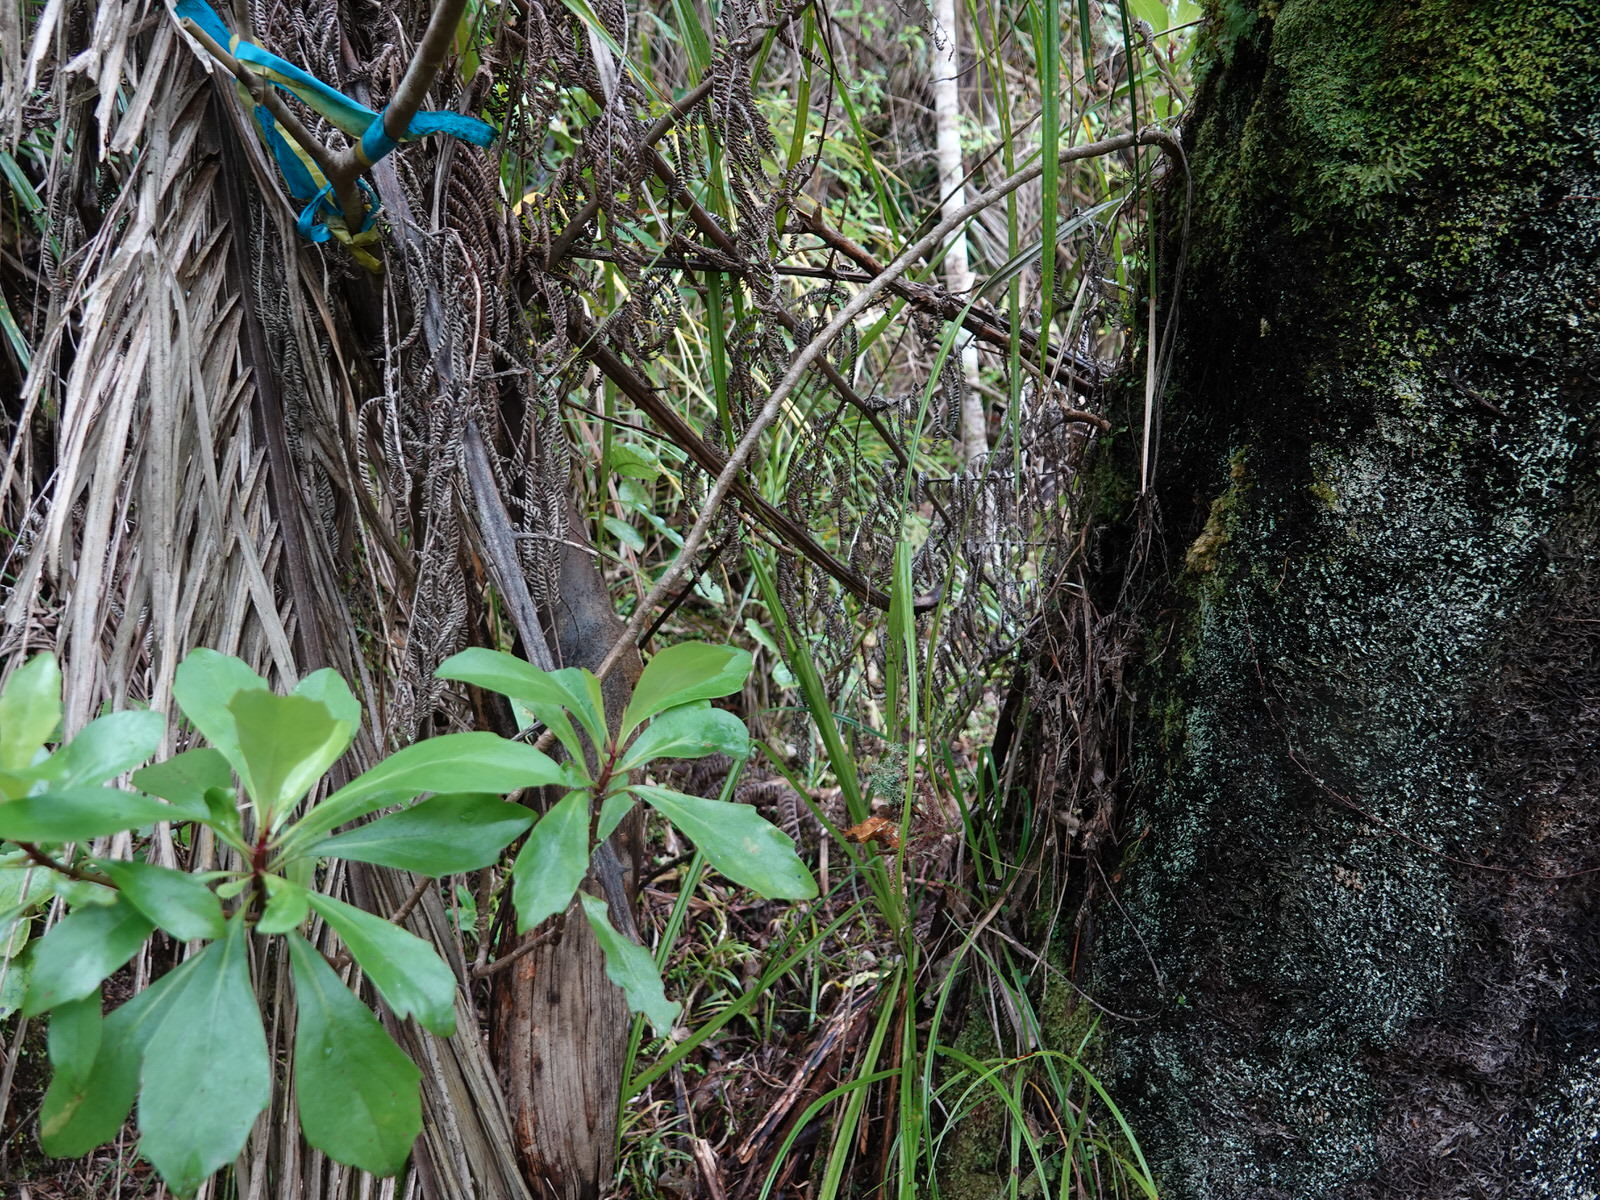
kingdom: Plantae
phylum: Tracheophyta
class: Magnoliopsida
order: Asterales
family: Asteraceae
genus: Brachyglottis
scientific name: Brachyglottis kirkii
